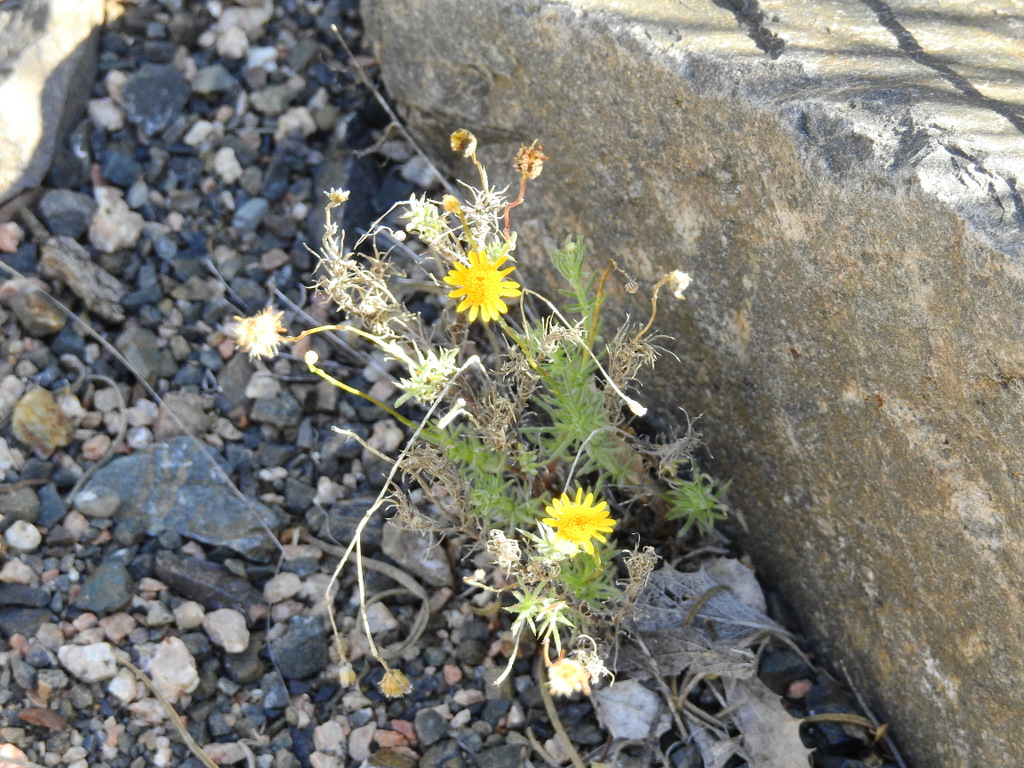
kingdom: Plantae
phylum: Tracheophyta
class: Magnoliopsida
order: Asterales
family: Asteraceae
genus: Thymophylla
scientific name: Thymophylla pentachaeta
